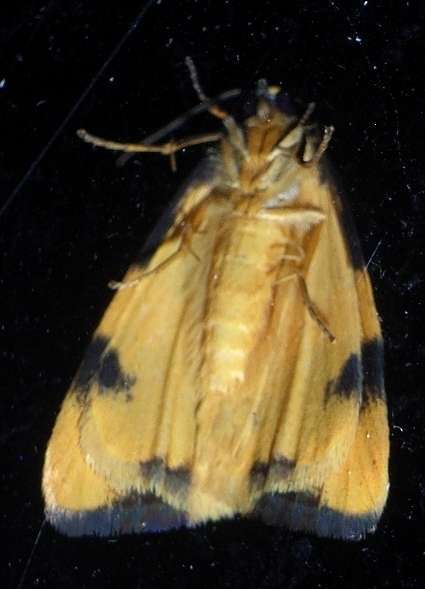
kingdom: Animalia
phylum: Arthropoda
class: Insecta
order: Lepidoptera
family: Erebidae
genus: Termessa
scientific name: Termessa laeta
